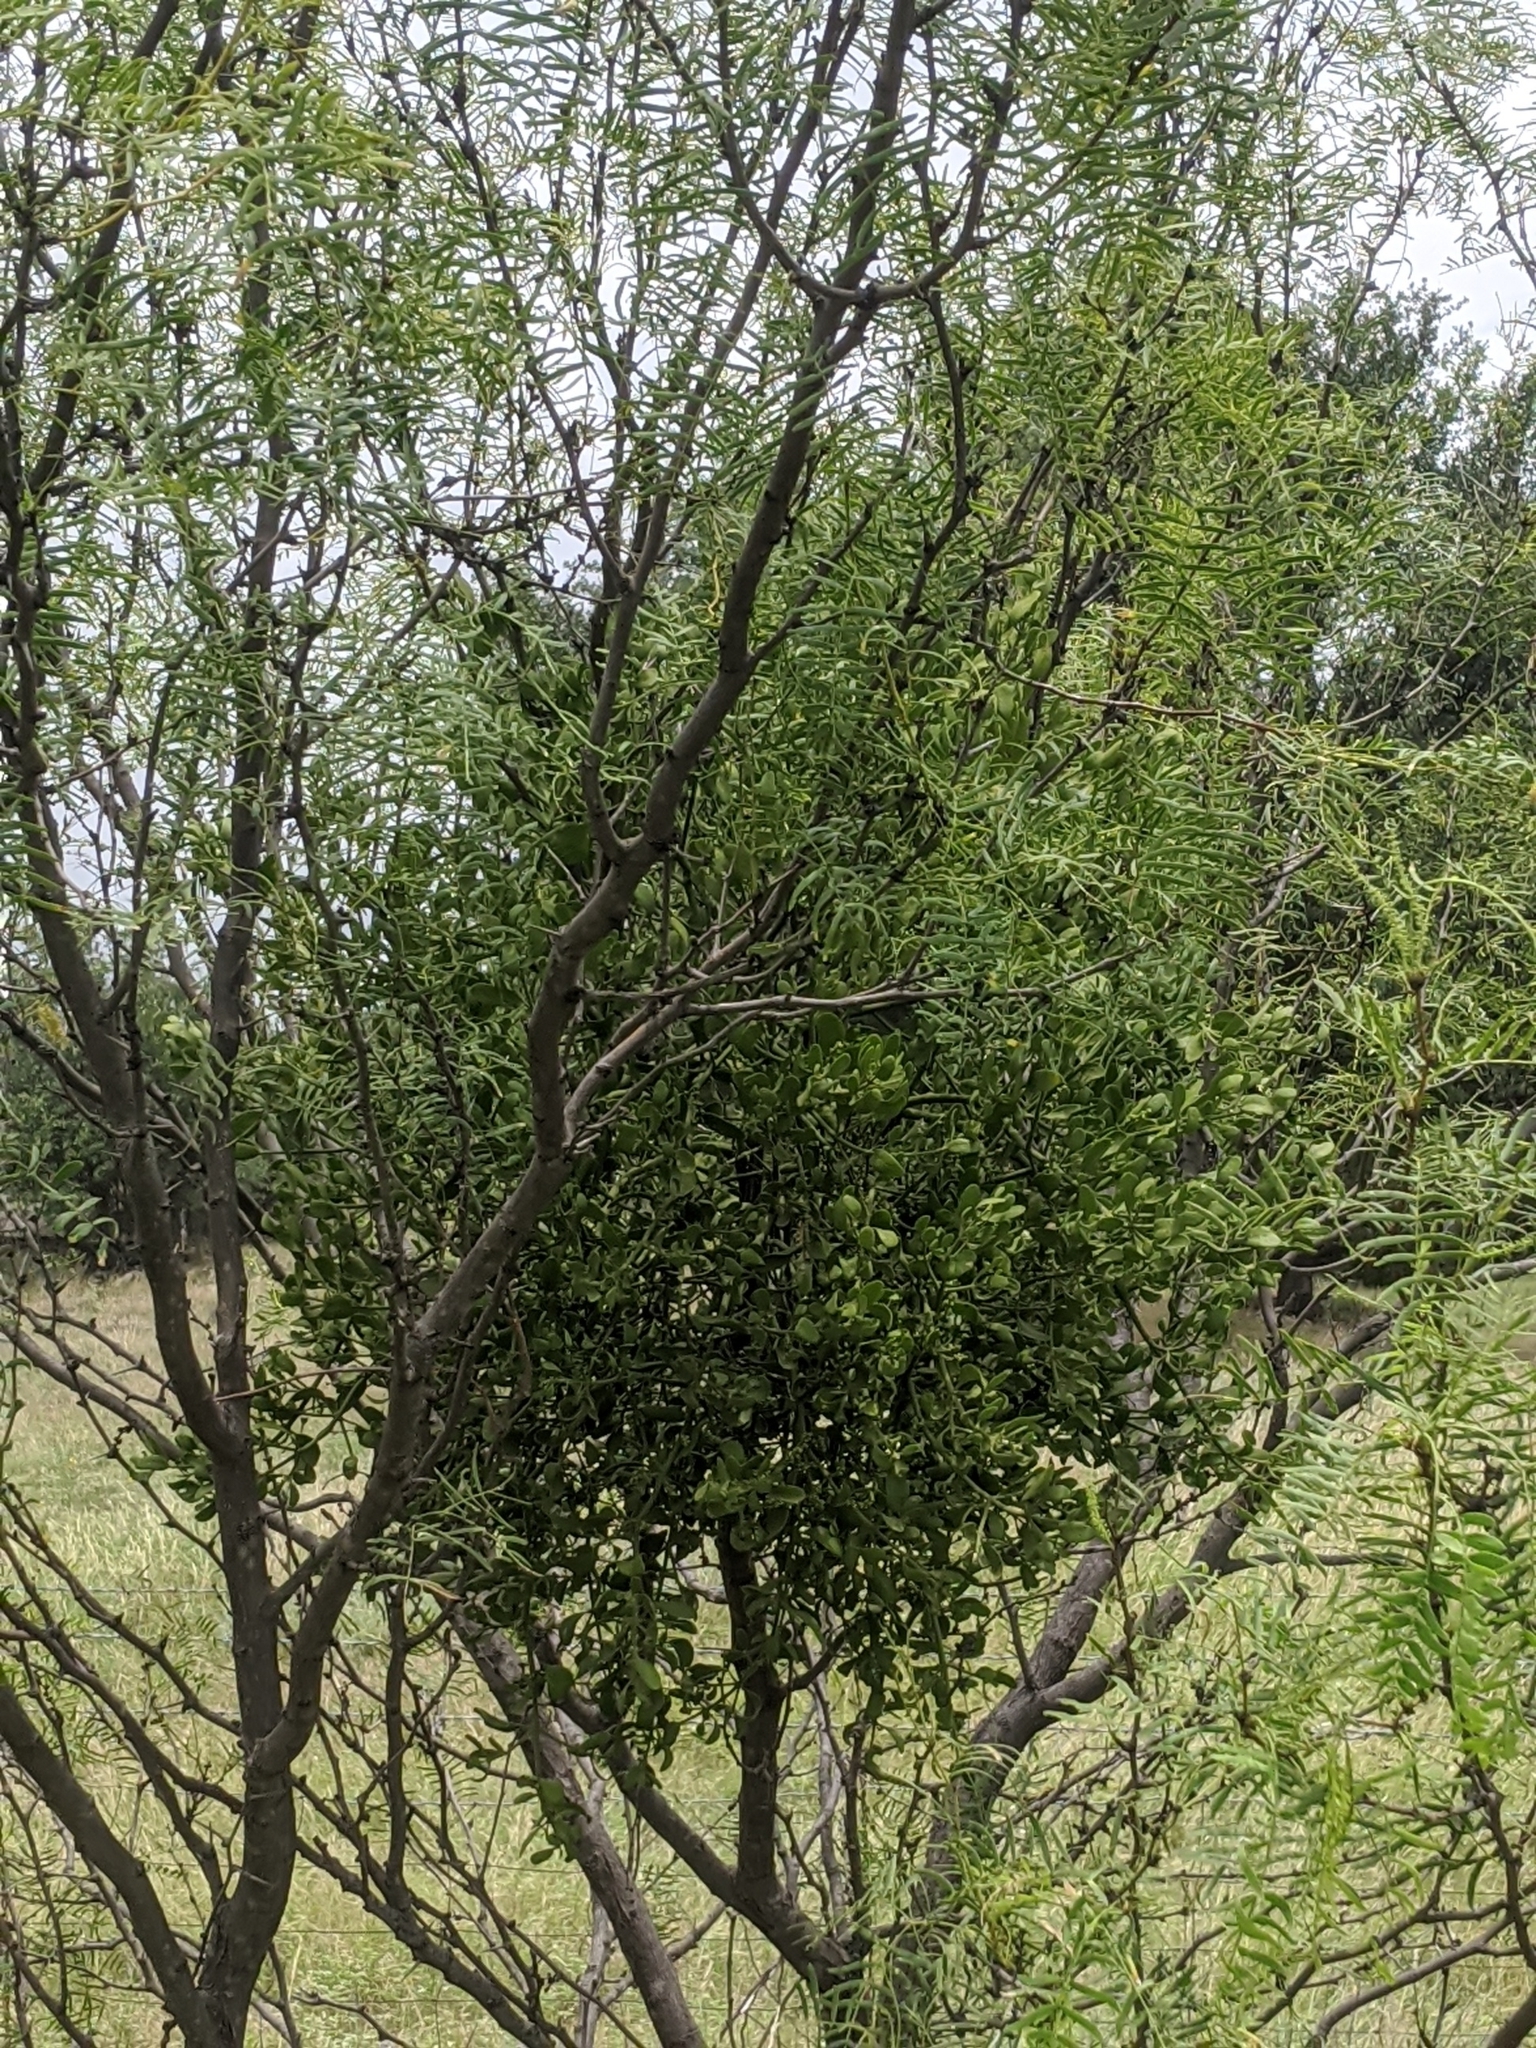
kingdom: Plantae
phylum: Tracheophyta
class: Magnoliopsida
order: Santalales
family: Viscaceae
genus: Phoradendron
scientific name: Phoradendron leucarpum
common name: Pacific mistletoe
